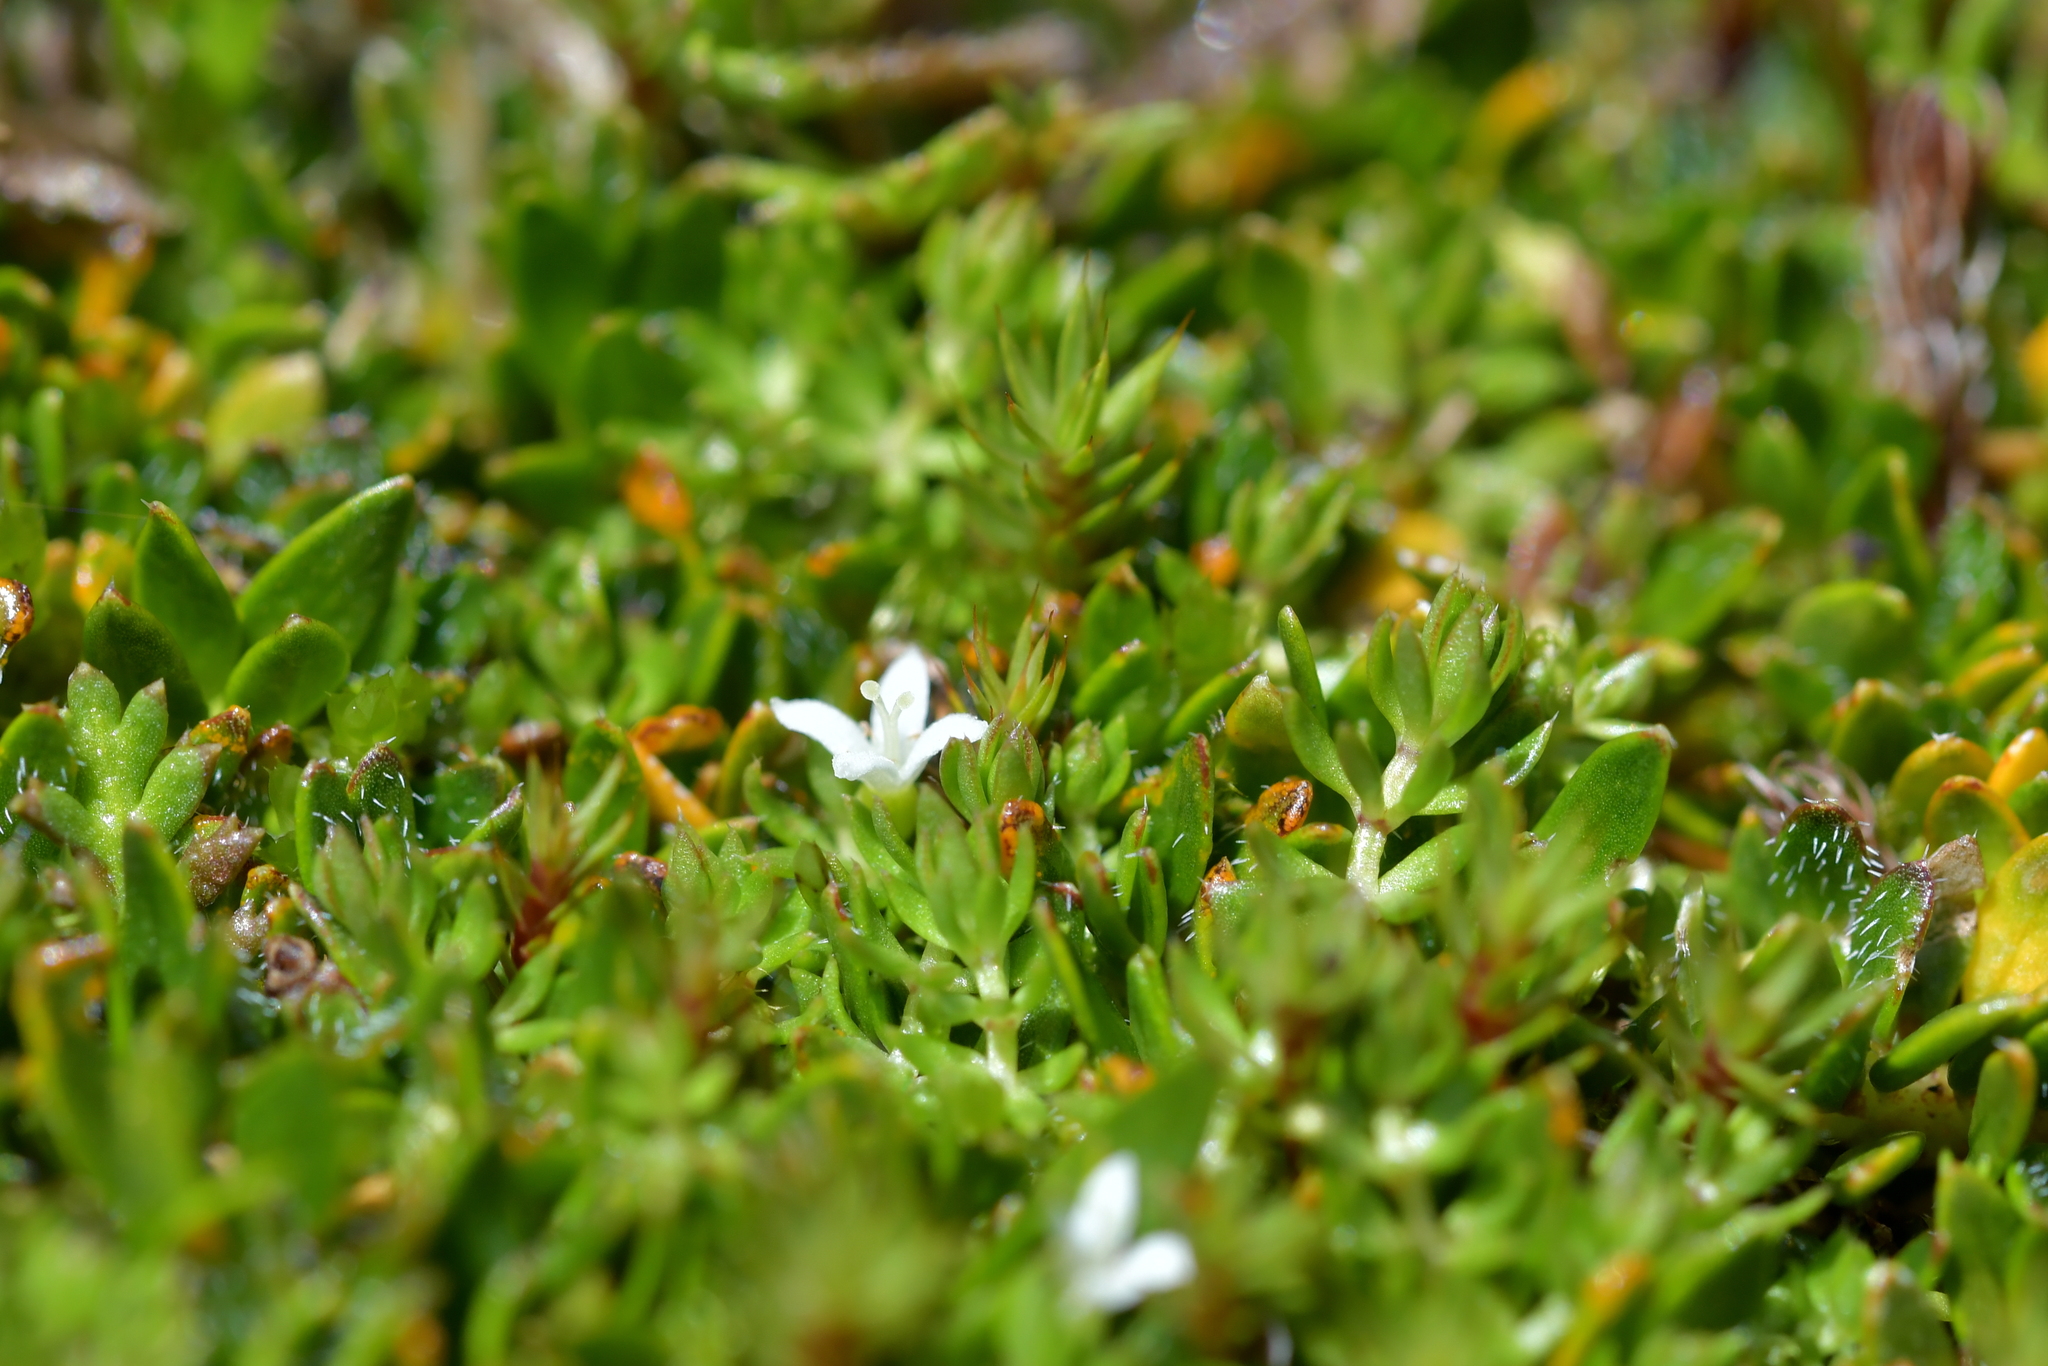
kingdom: Plantae
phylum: Tracheophyta
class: Magnoliopsida
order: Gentianales
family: Rubiaceae
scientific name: Rubiaceae
